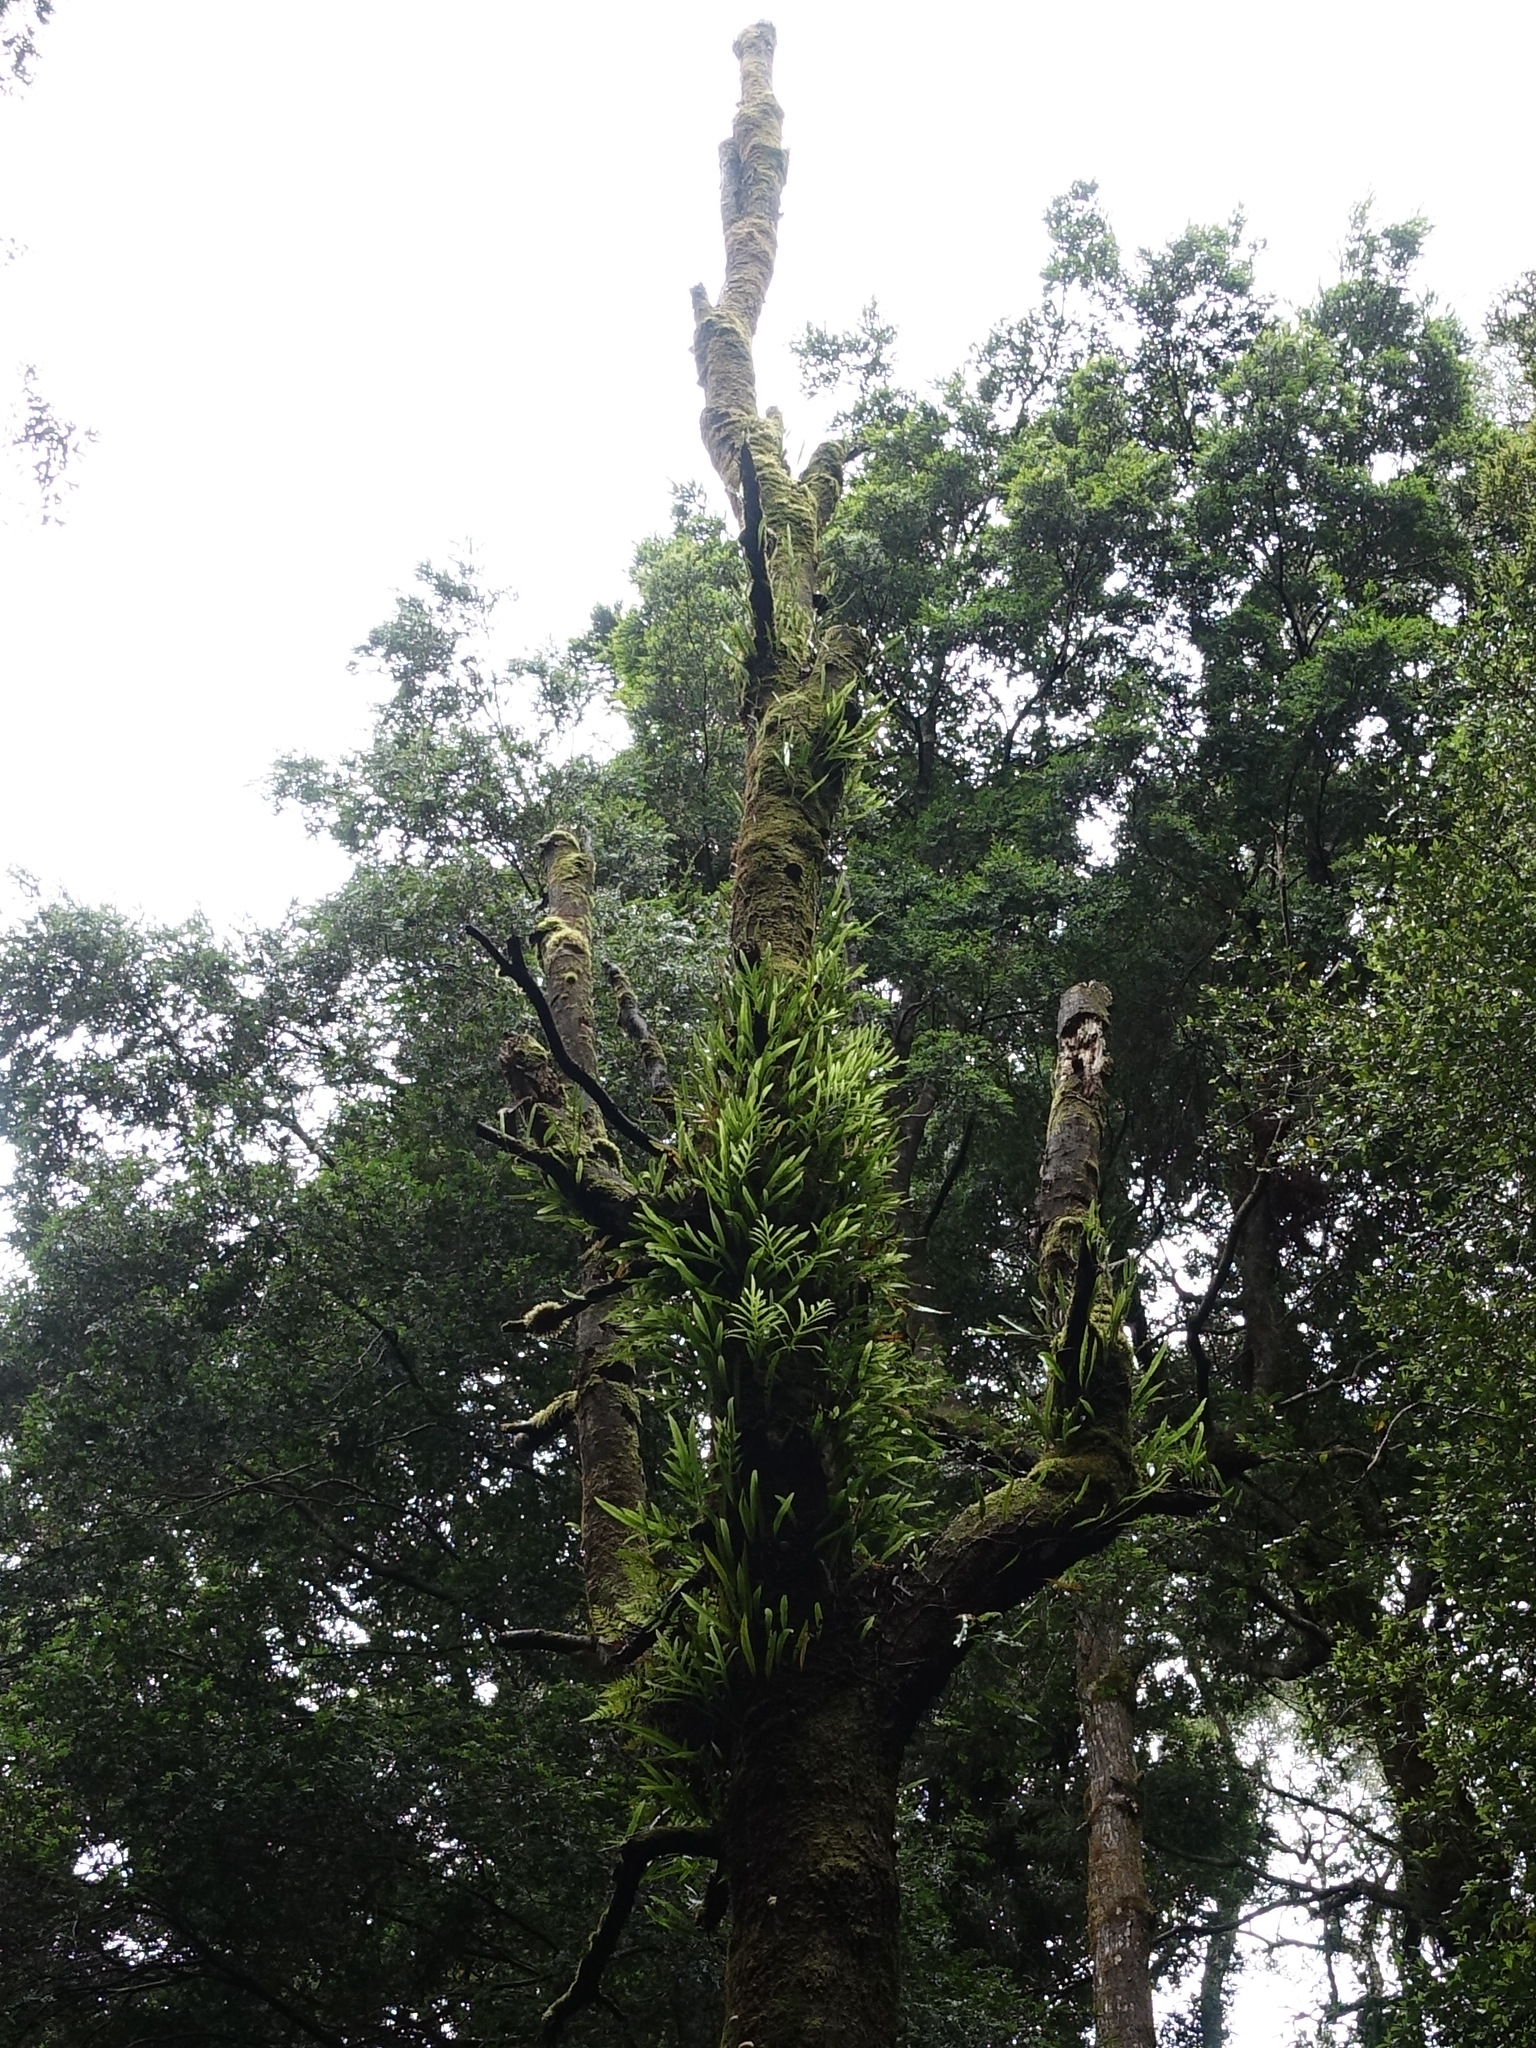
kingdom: Plantae
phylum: Tracheophyta
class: Polypodiopsida
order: Polypodiales
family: Polypodiaceae
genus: Lecanopteris
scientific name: Lecanopteris pustulata
